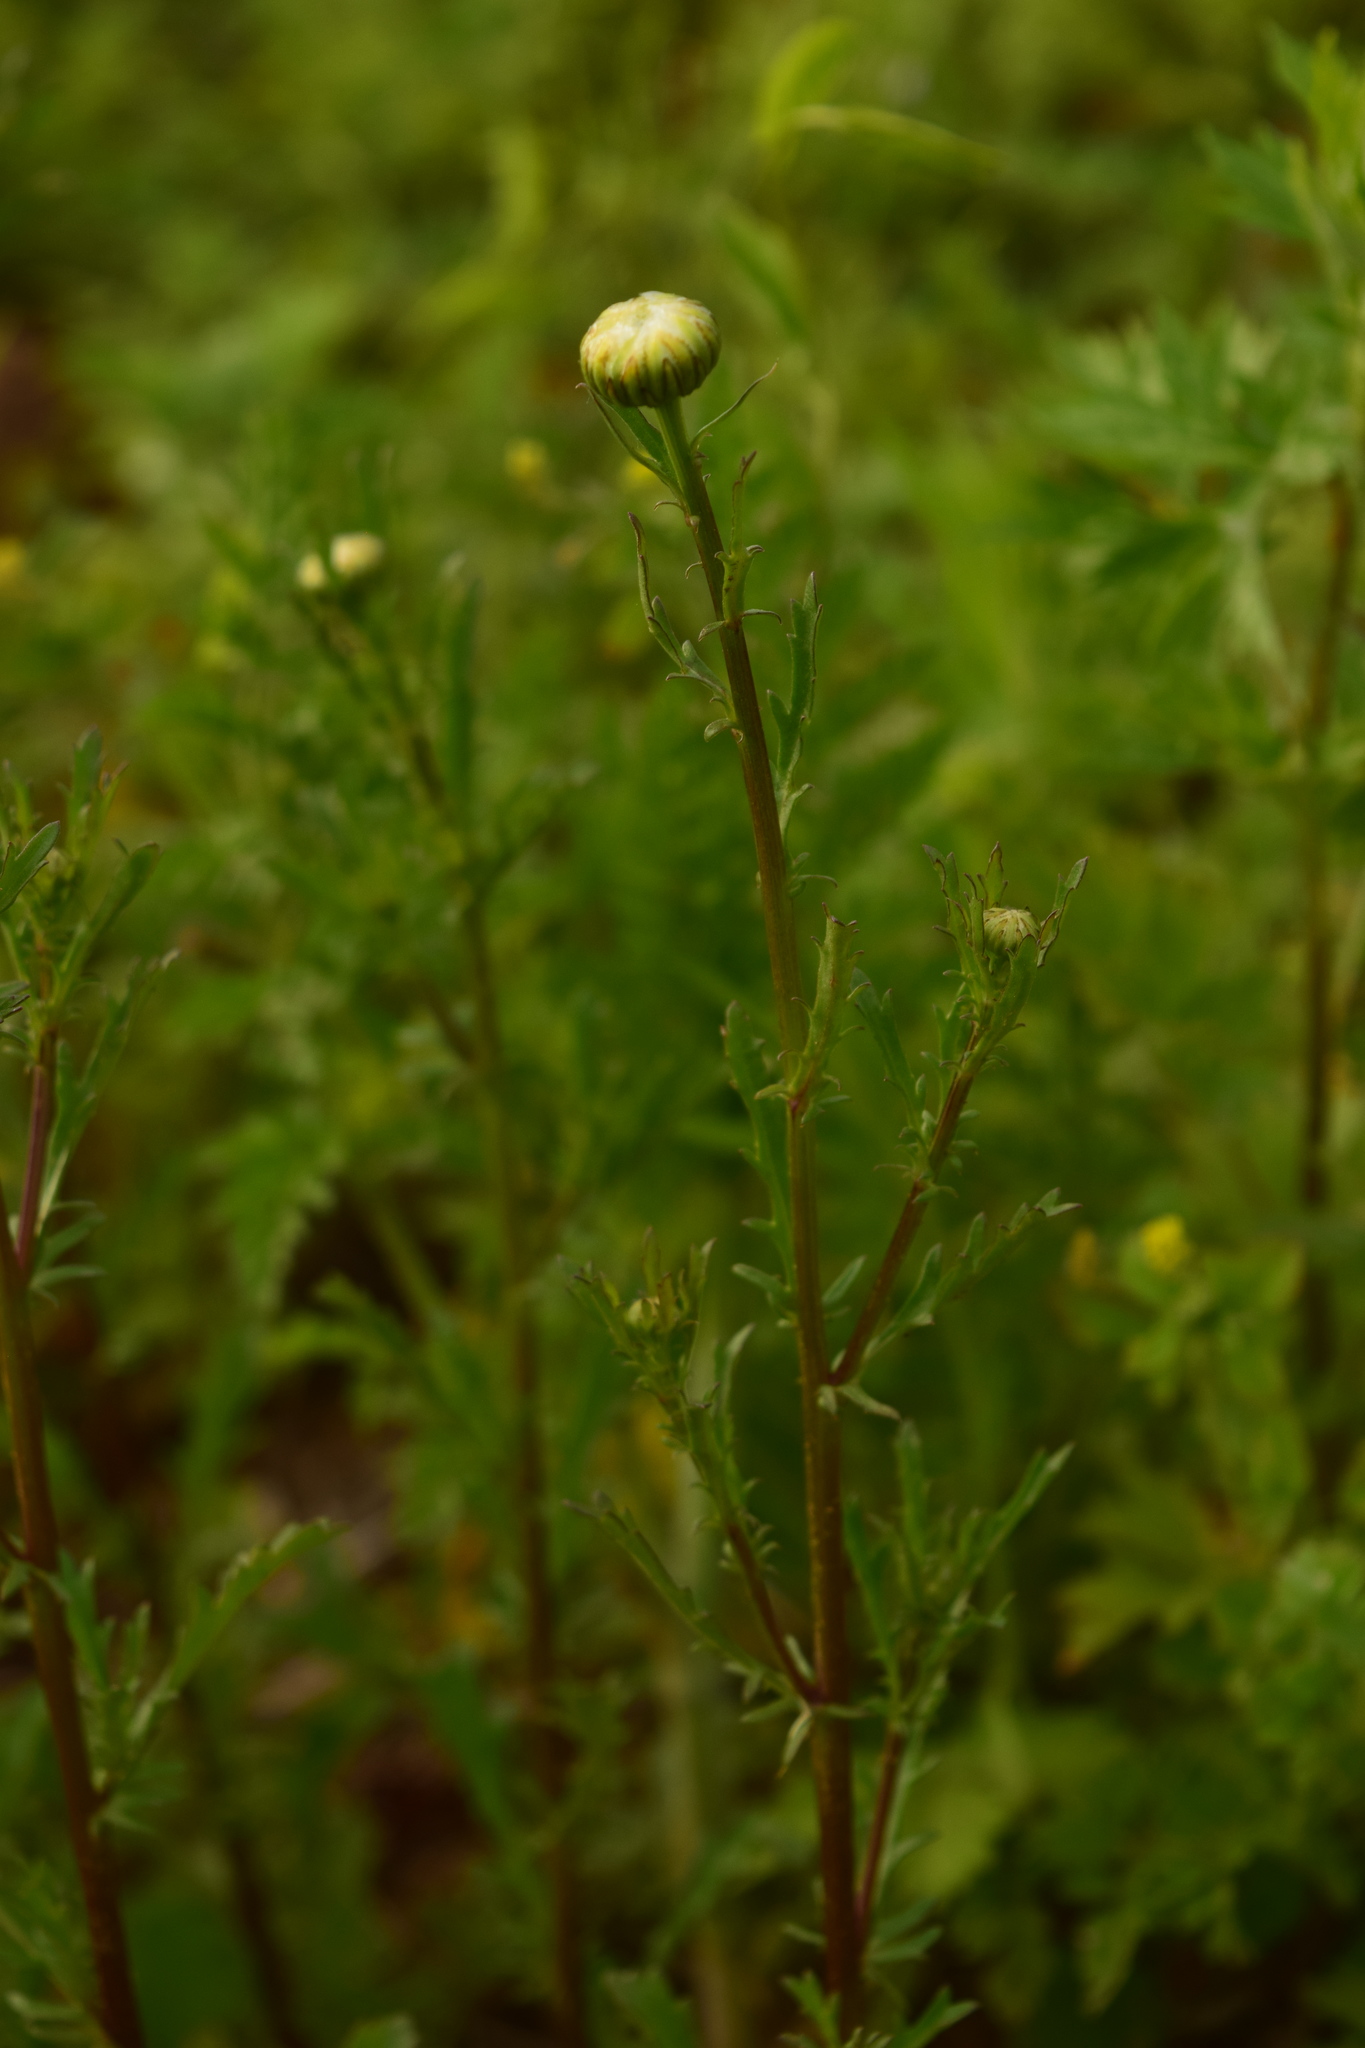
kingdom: Plantae
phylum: Tracheophyta
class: Magnoliopsida
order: Asterales
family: Asteraceae
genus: Leucanthemum
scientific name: Leucanthemum vulgare
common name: Oxeye daisy
